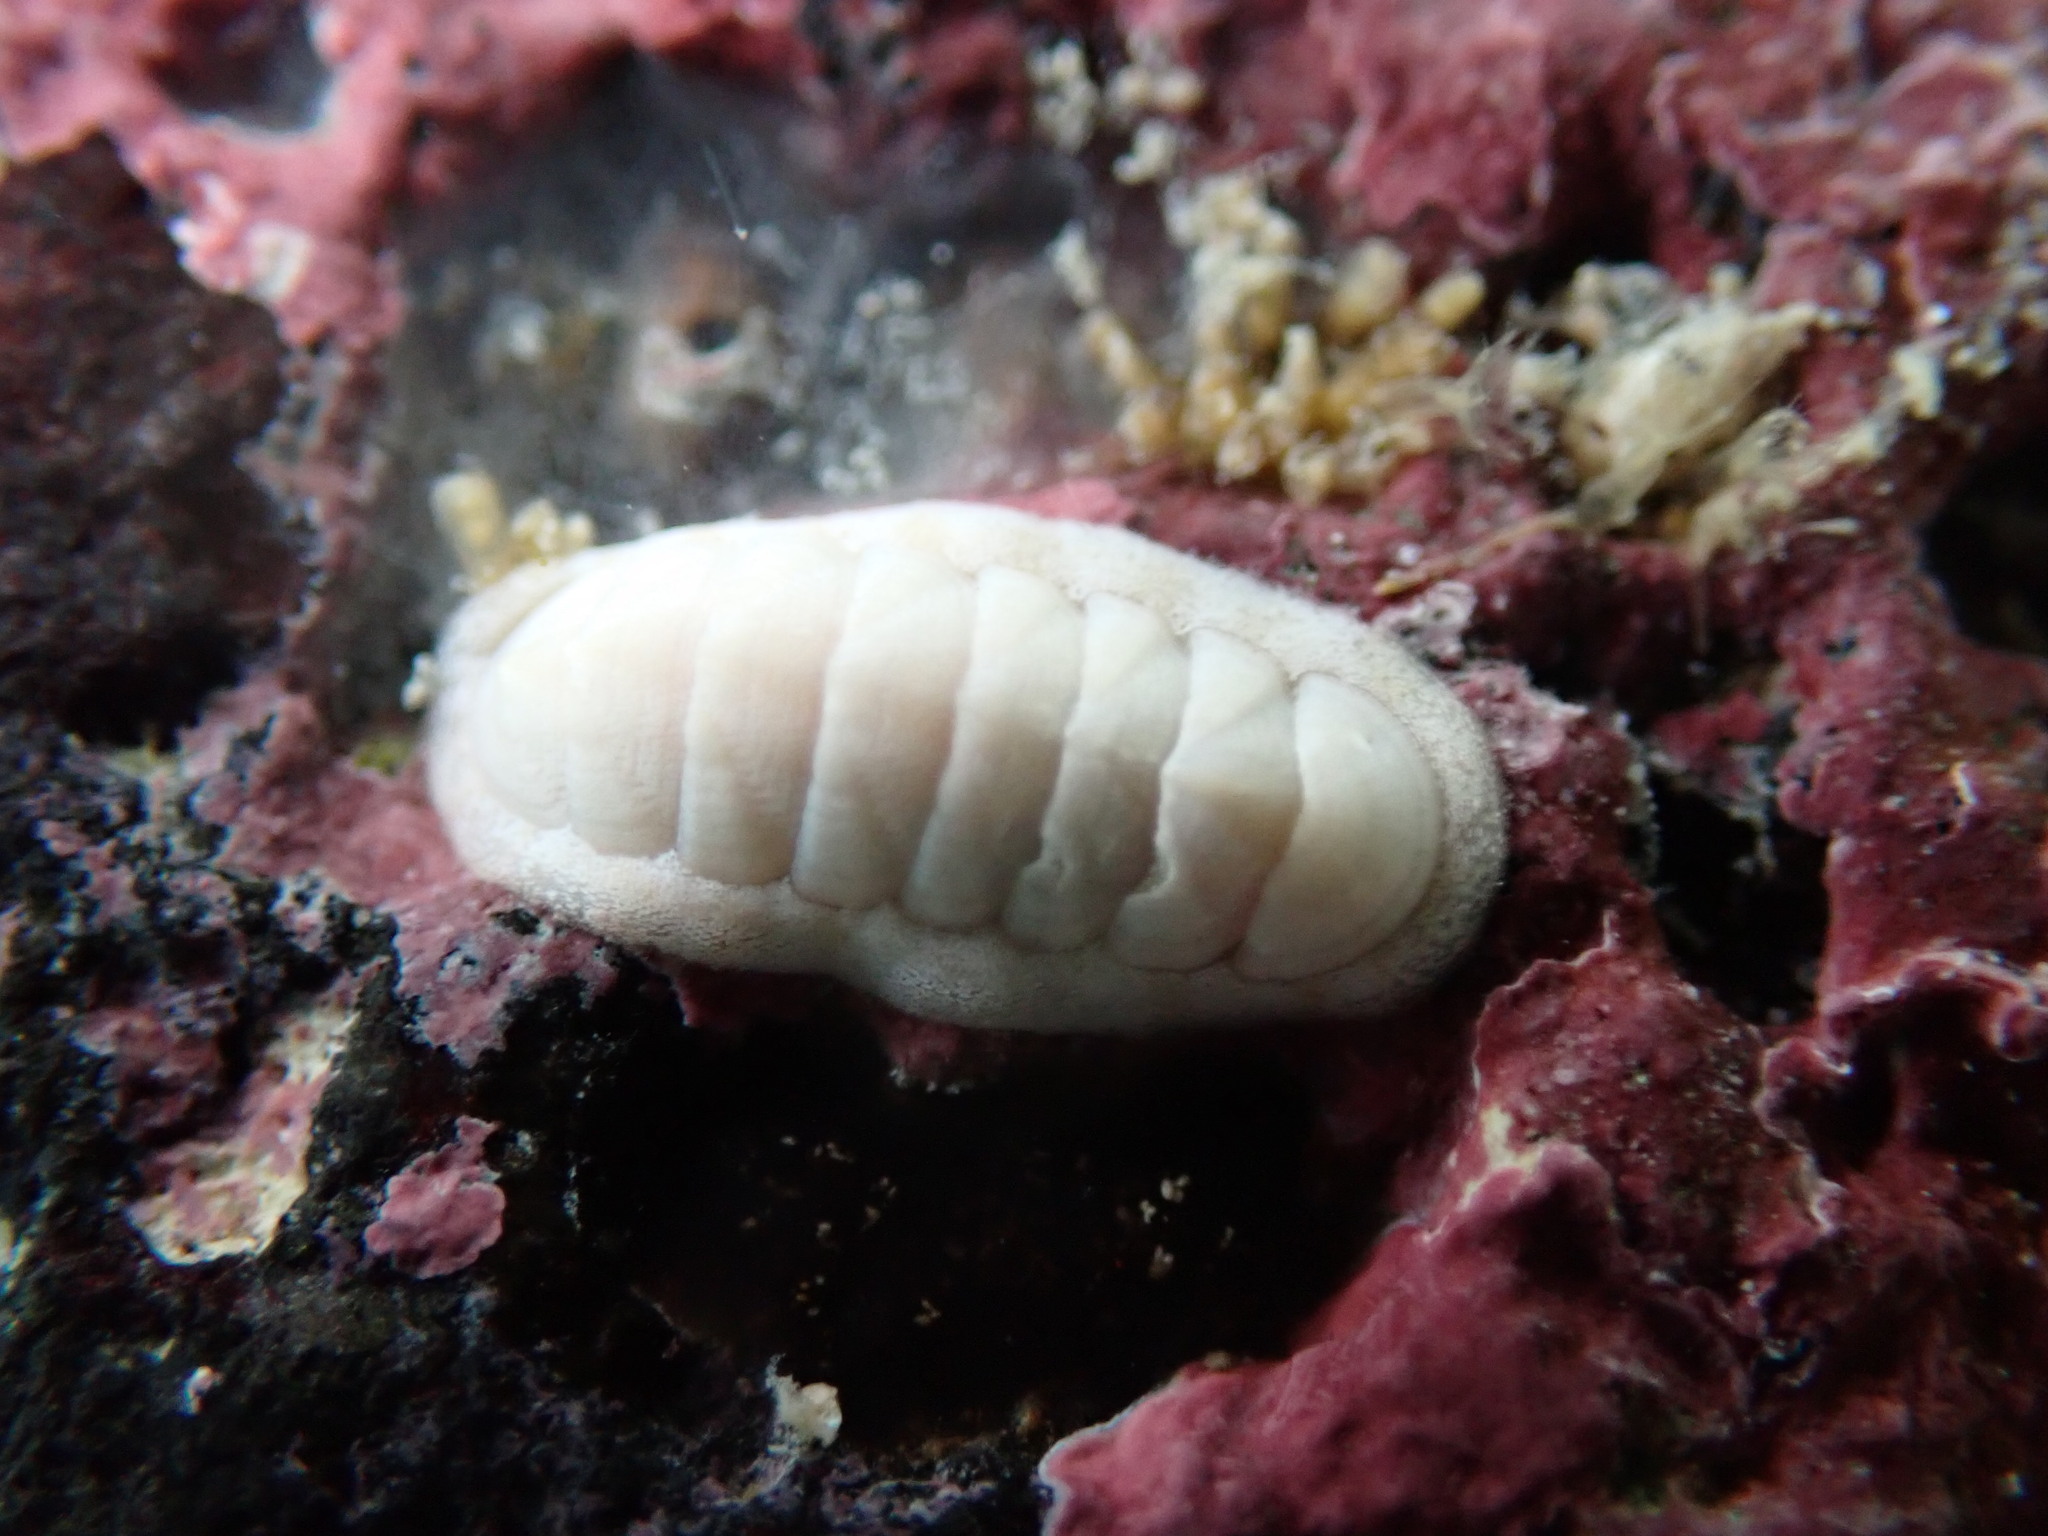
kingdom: Animalia
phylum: Mollusca
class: Polyplacophora
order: Chitonida
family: Ischnochitonidae
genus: Stenoplax
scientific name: Stenoplax petaloides
